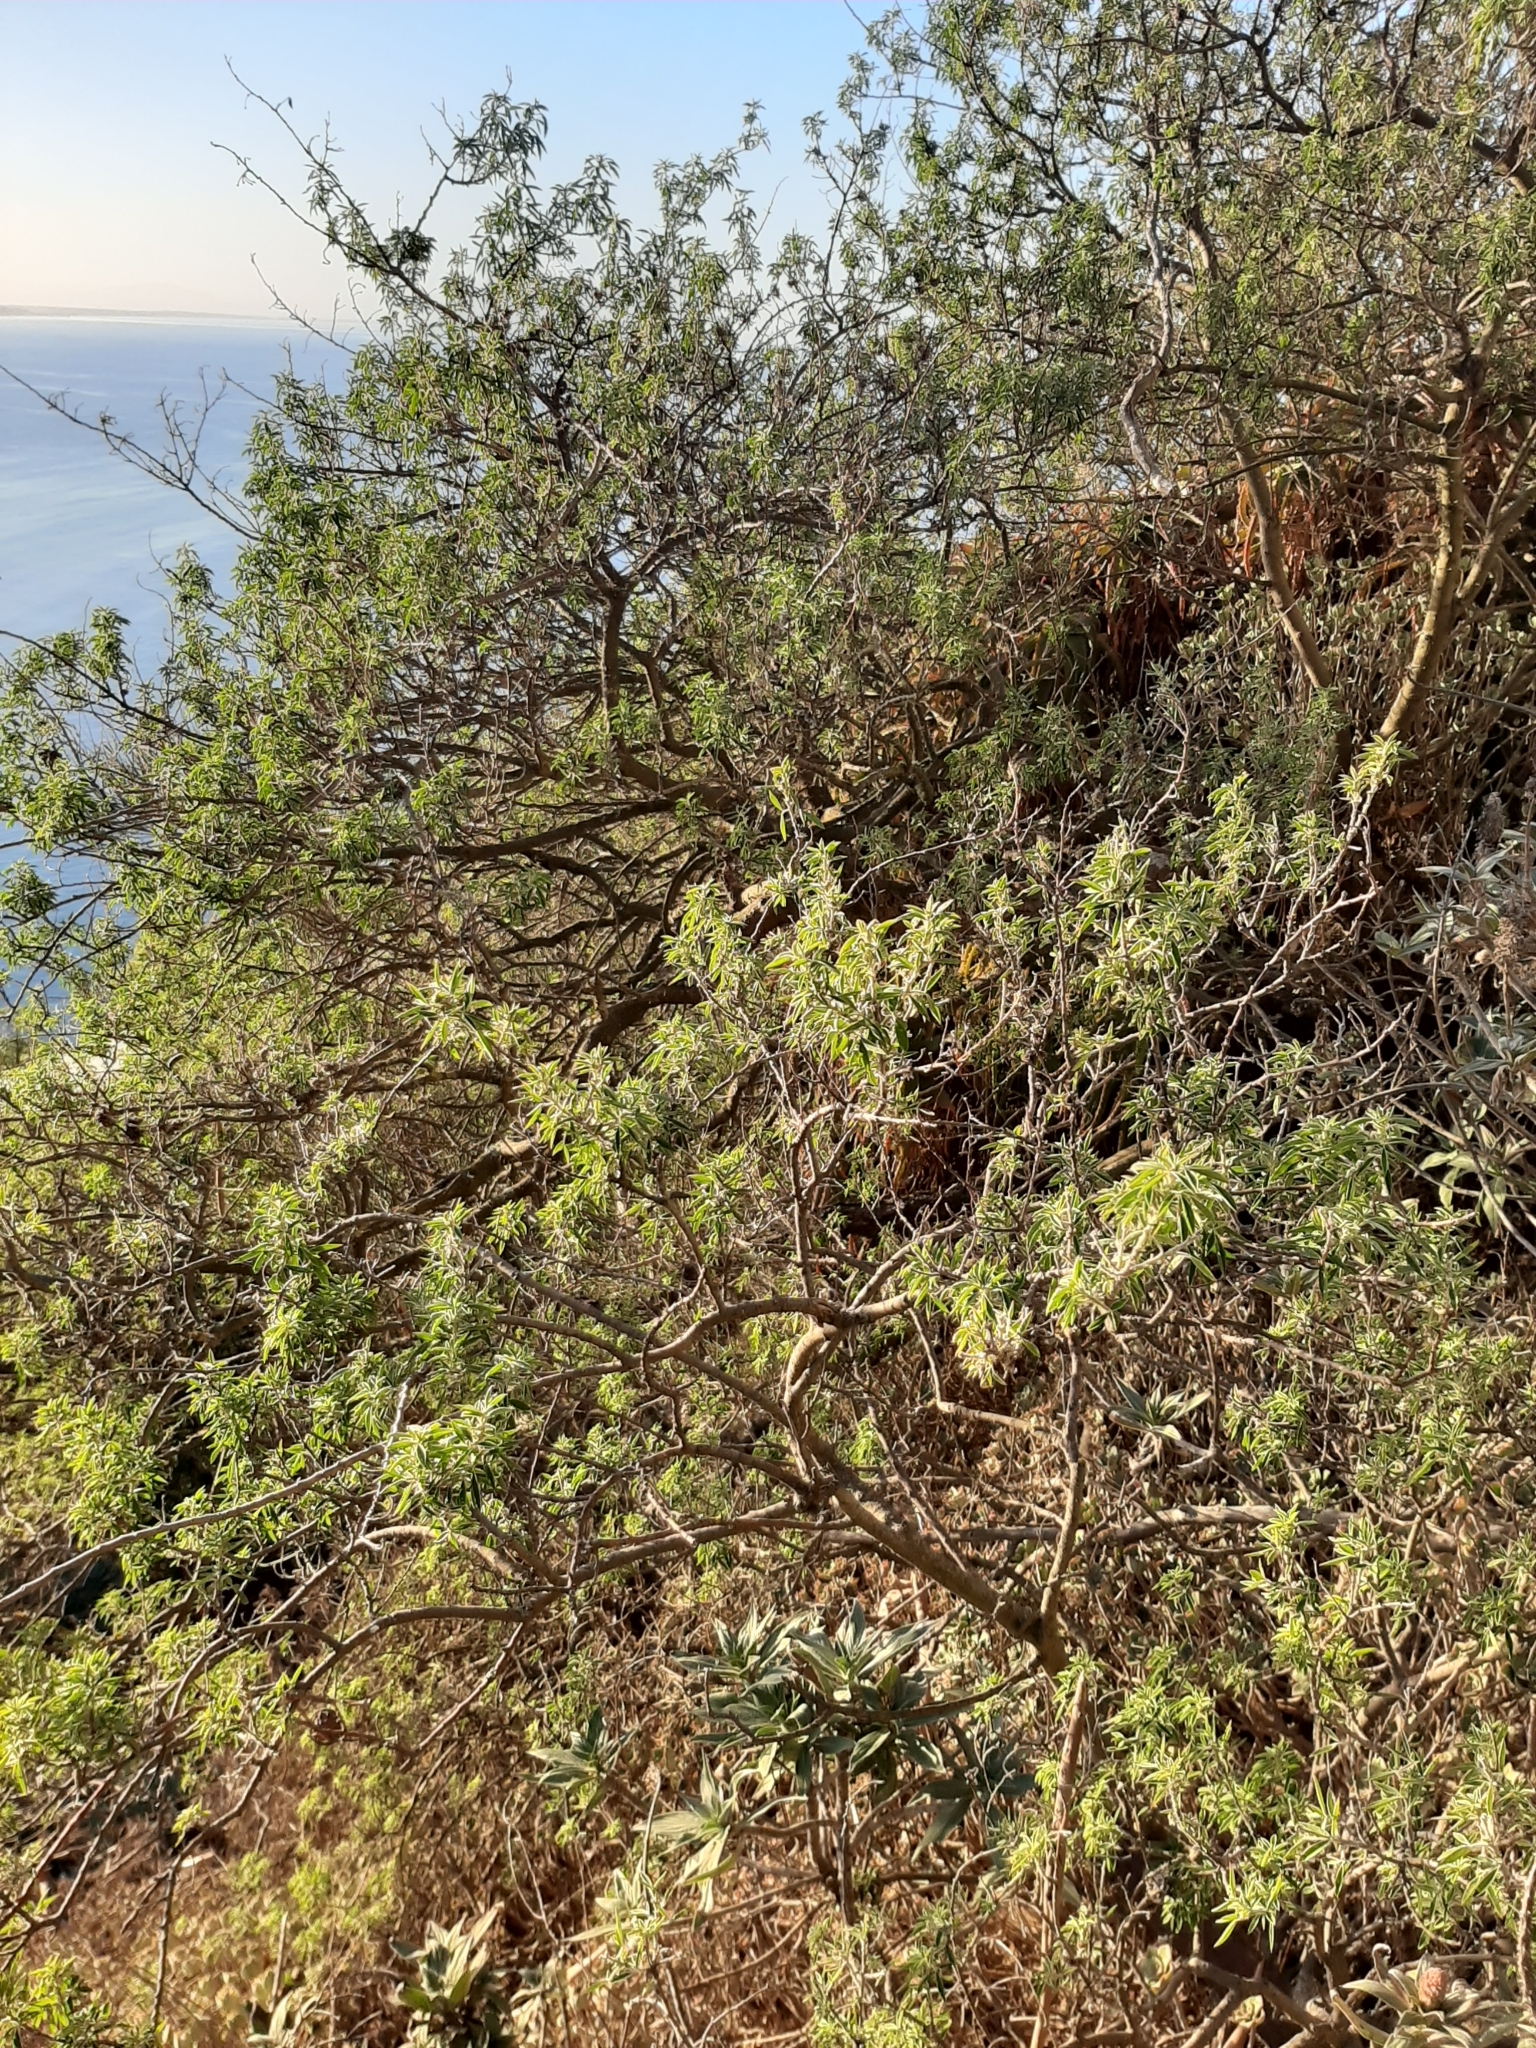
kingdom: Plantae
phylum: Tracheophyta
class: Magnoliopsida
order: Fabales
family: Fabaceae
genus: Chamaecytisus
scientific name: Chamaecytisus prolifer
